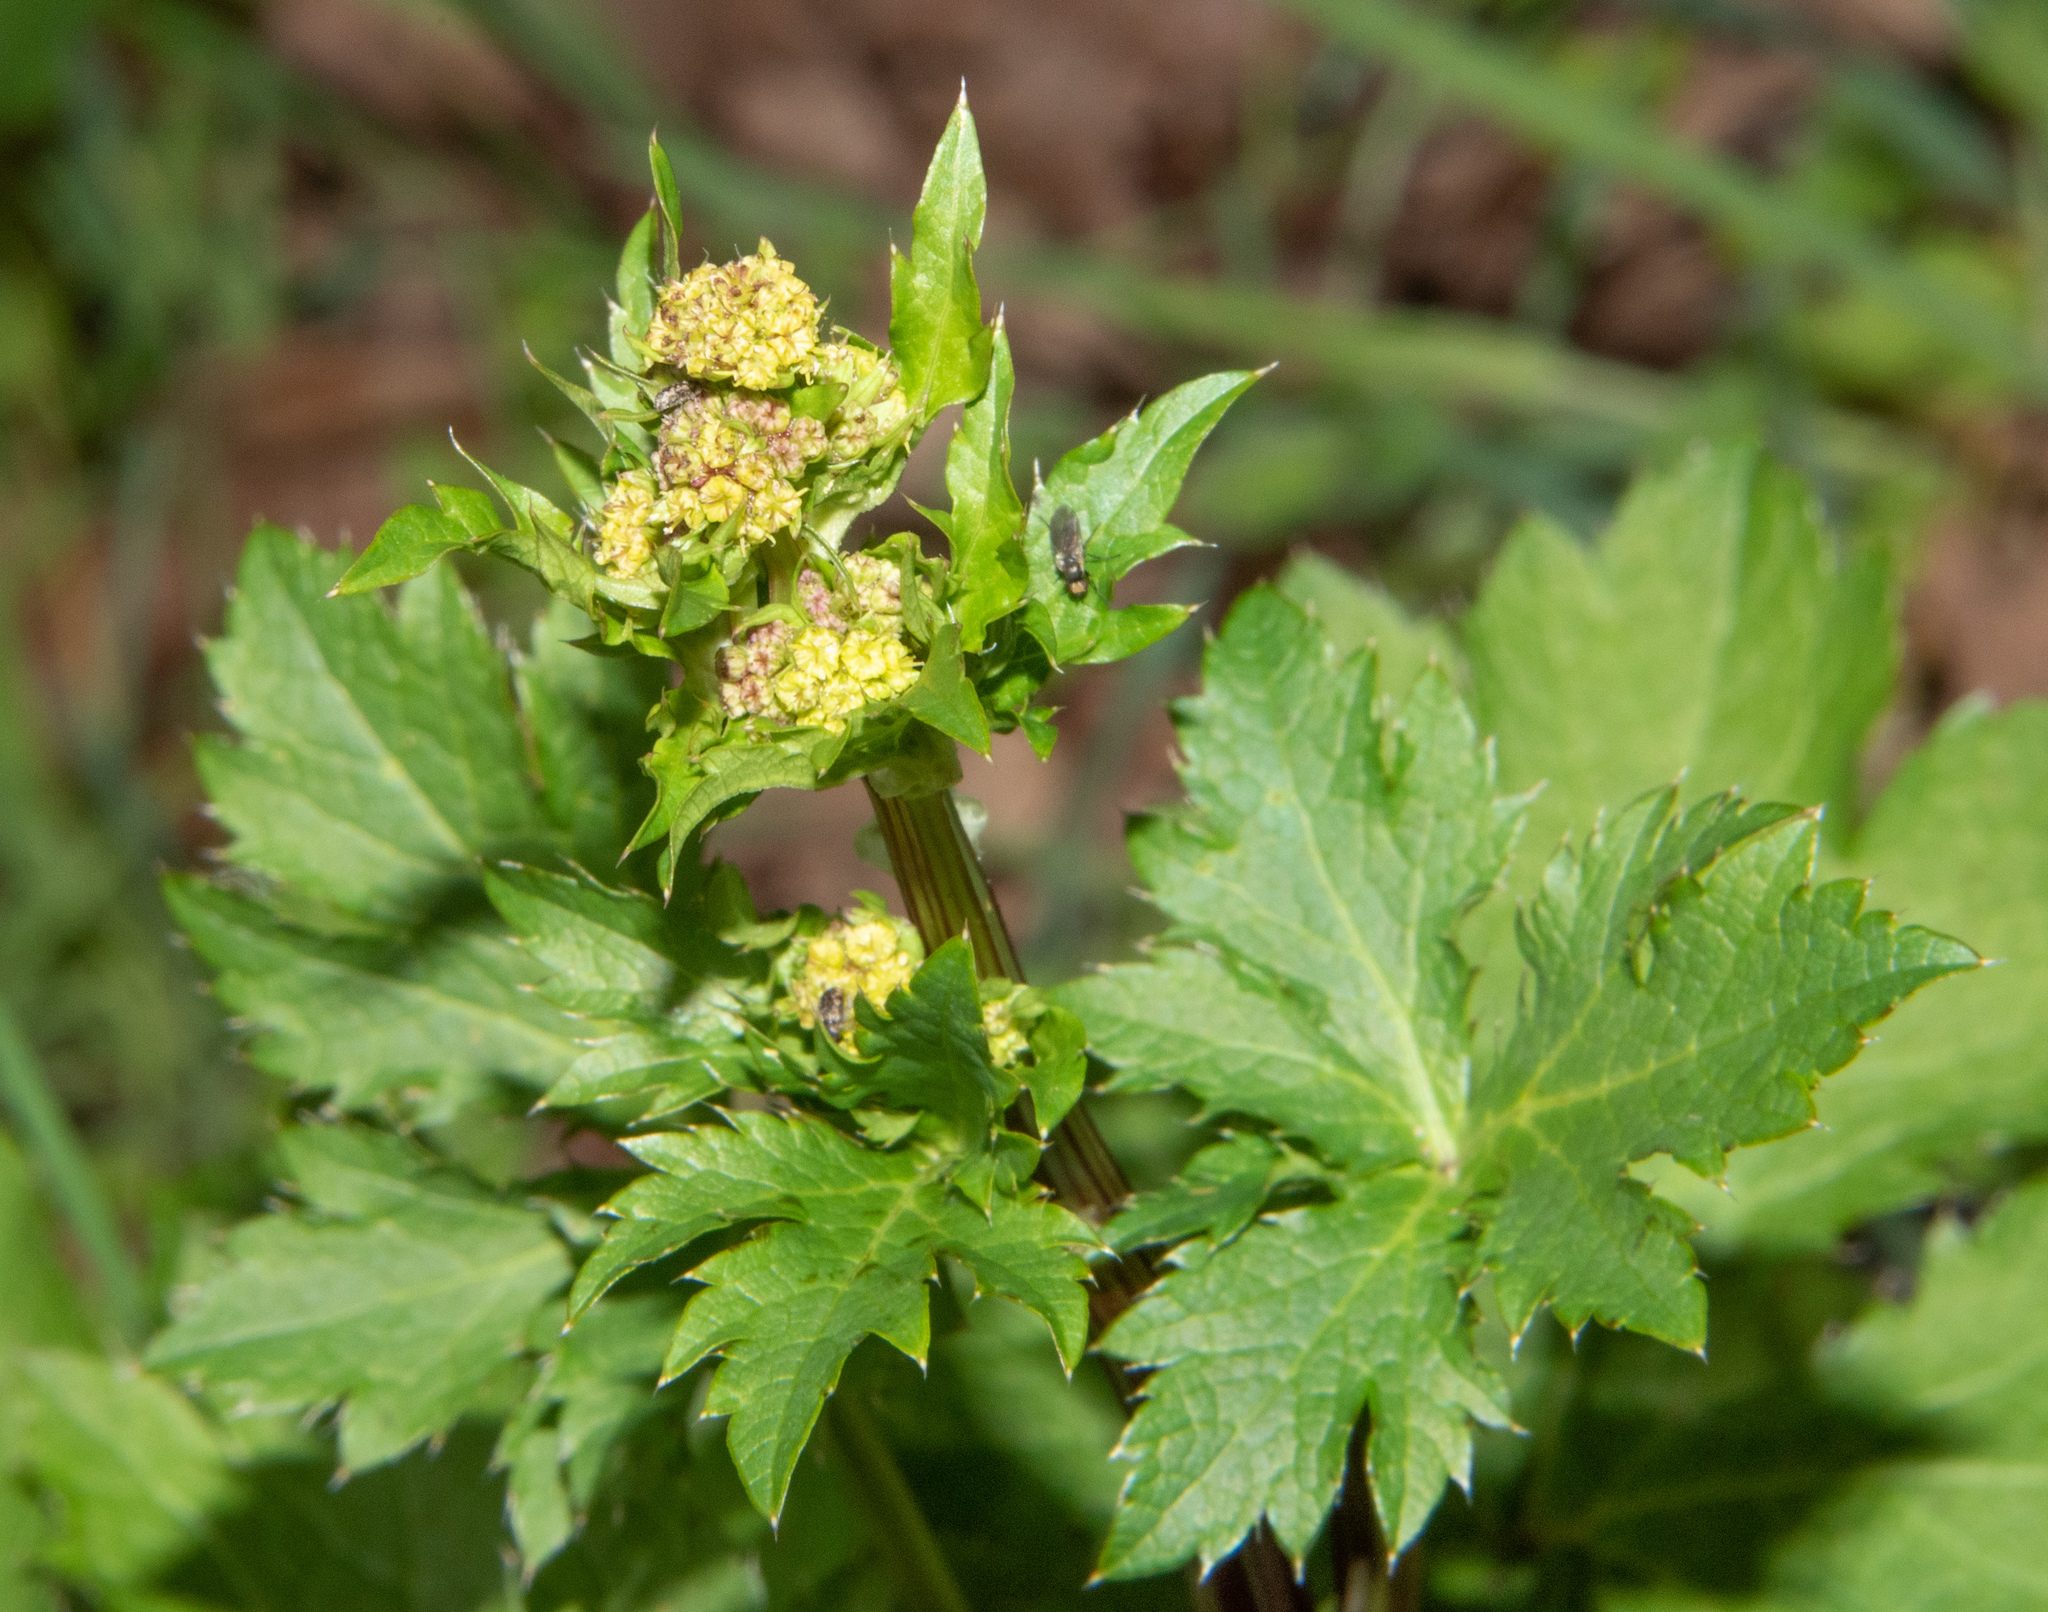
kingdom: Plantae
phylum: Tracheophyta
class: Magnoliopsida
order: Apiales
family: Apiaceae
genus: Sanicula
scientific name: Sanicula crassicaulis
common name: Western snakeroot
